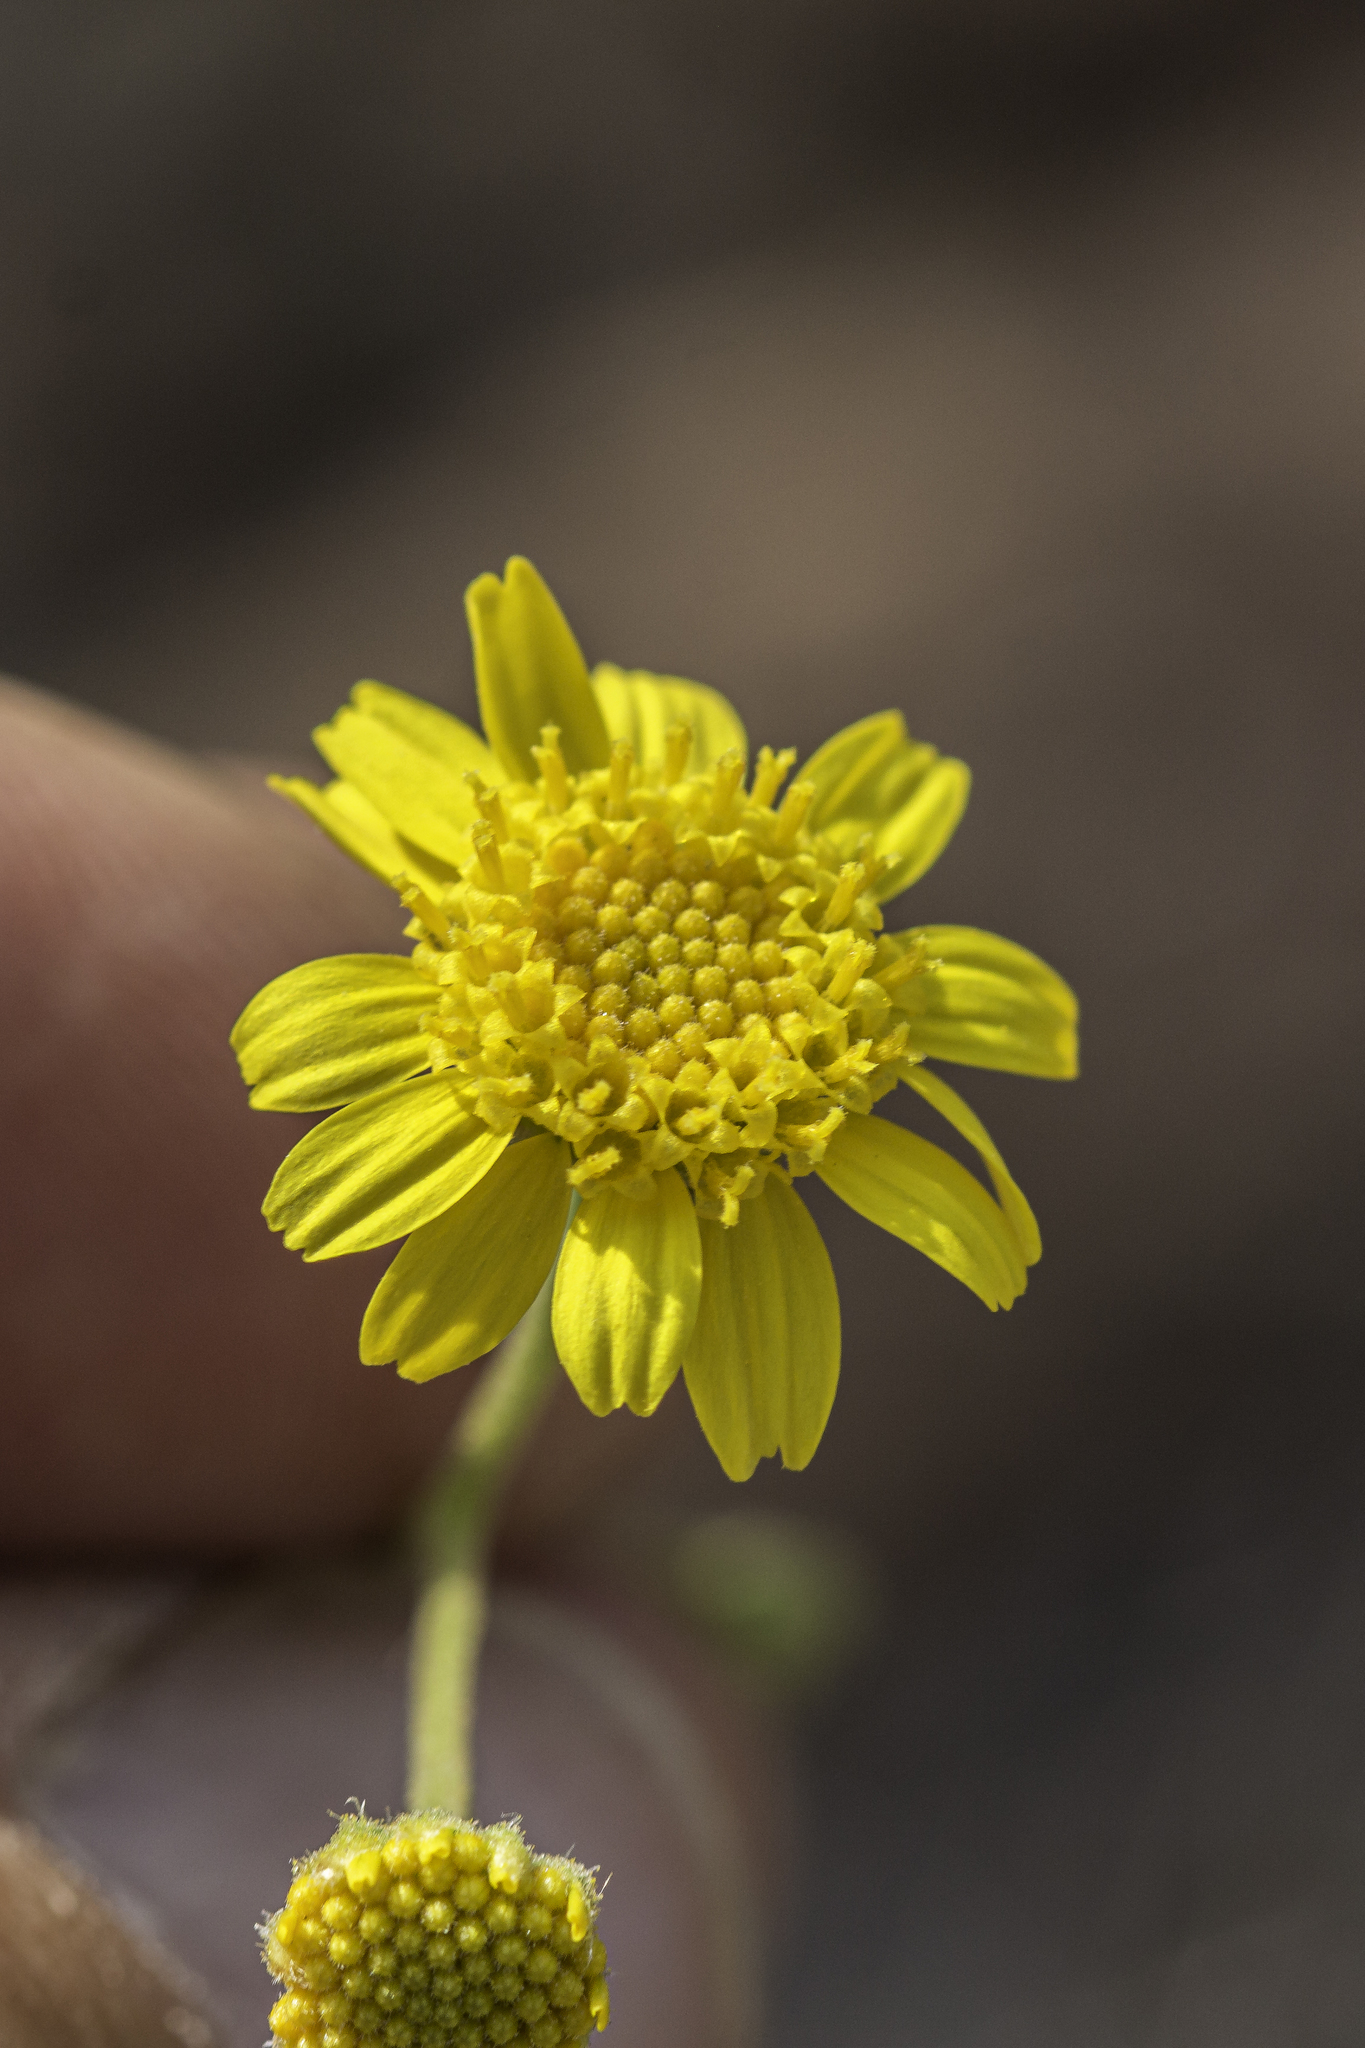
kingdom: Plantae
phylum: Tracheophyta
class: Magnoliopsida
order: Asterales
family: Asteraceae
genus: Hymenothrix
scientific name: Hymenothrix pedata
